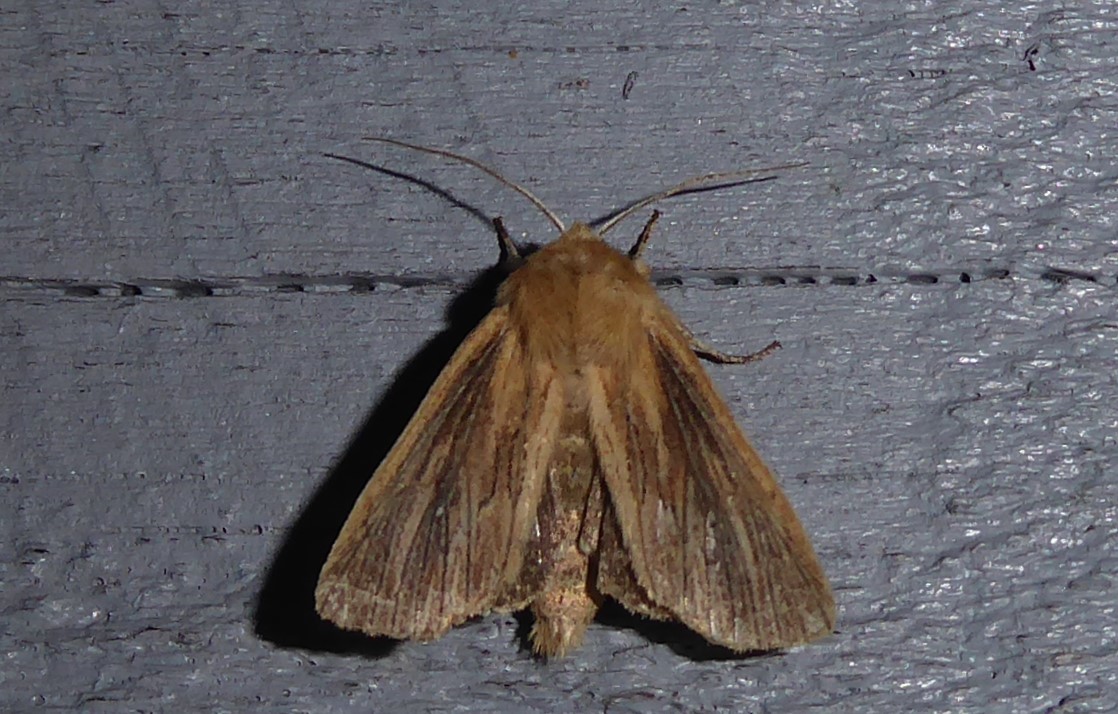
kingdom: Animalia
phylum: Arthropoda
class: Insecta
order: Lepidoptera
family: Noctuidae
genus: Ichneutica
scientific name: Ichneutica arotis
